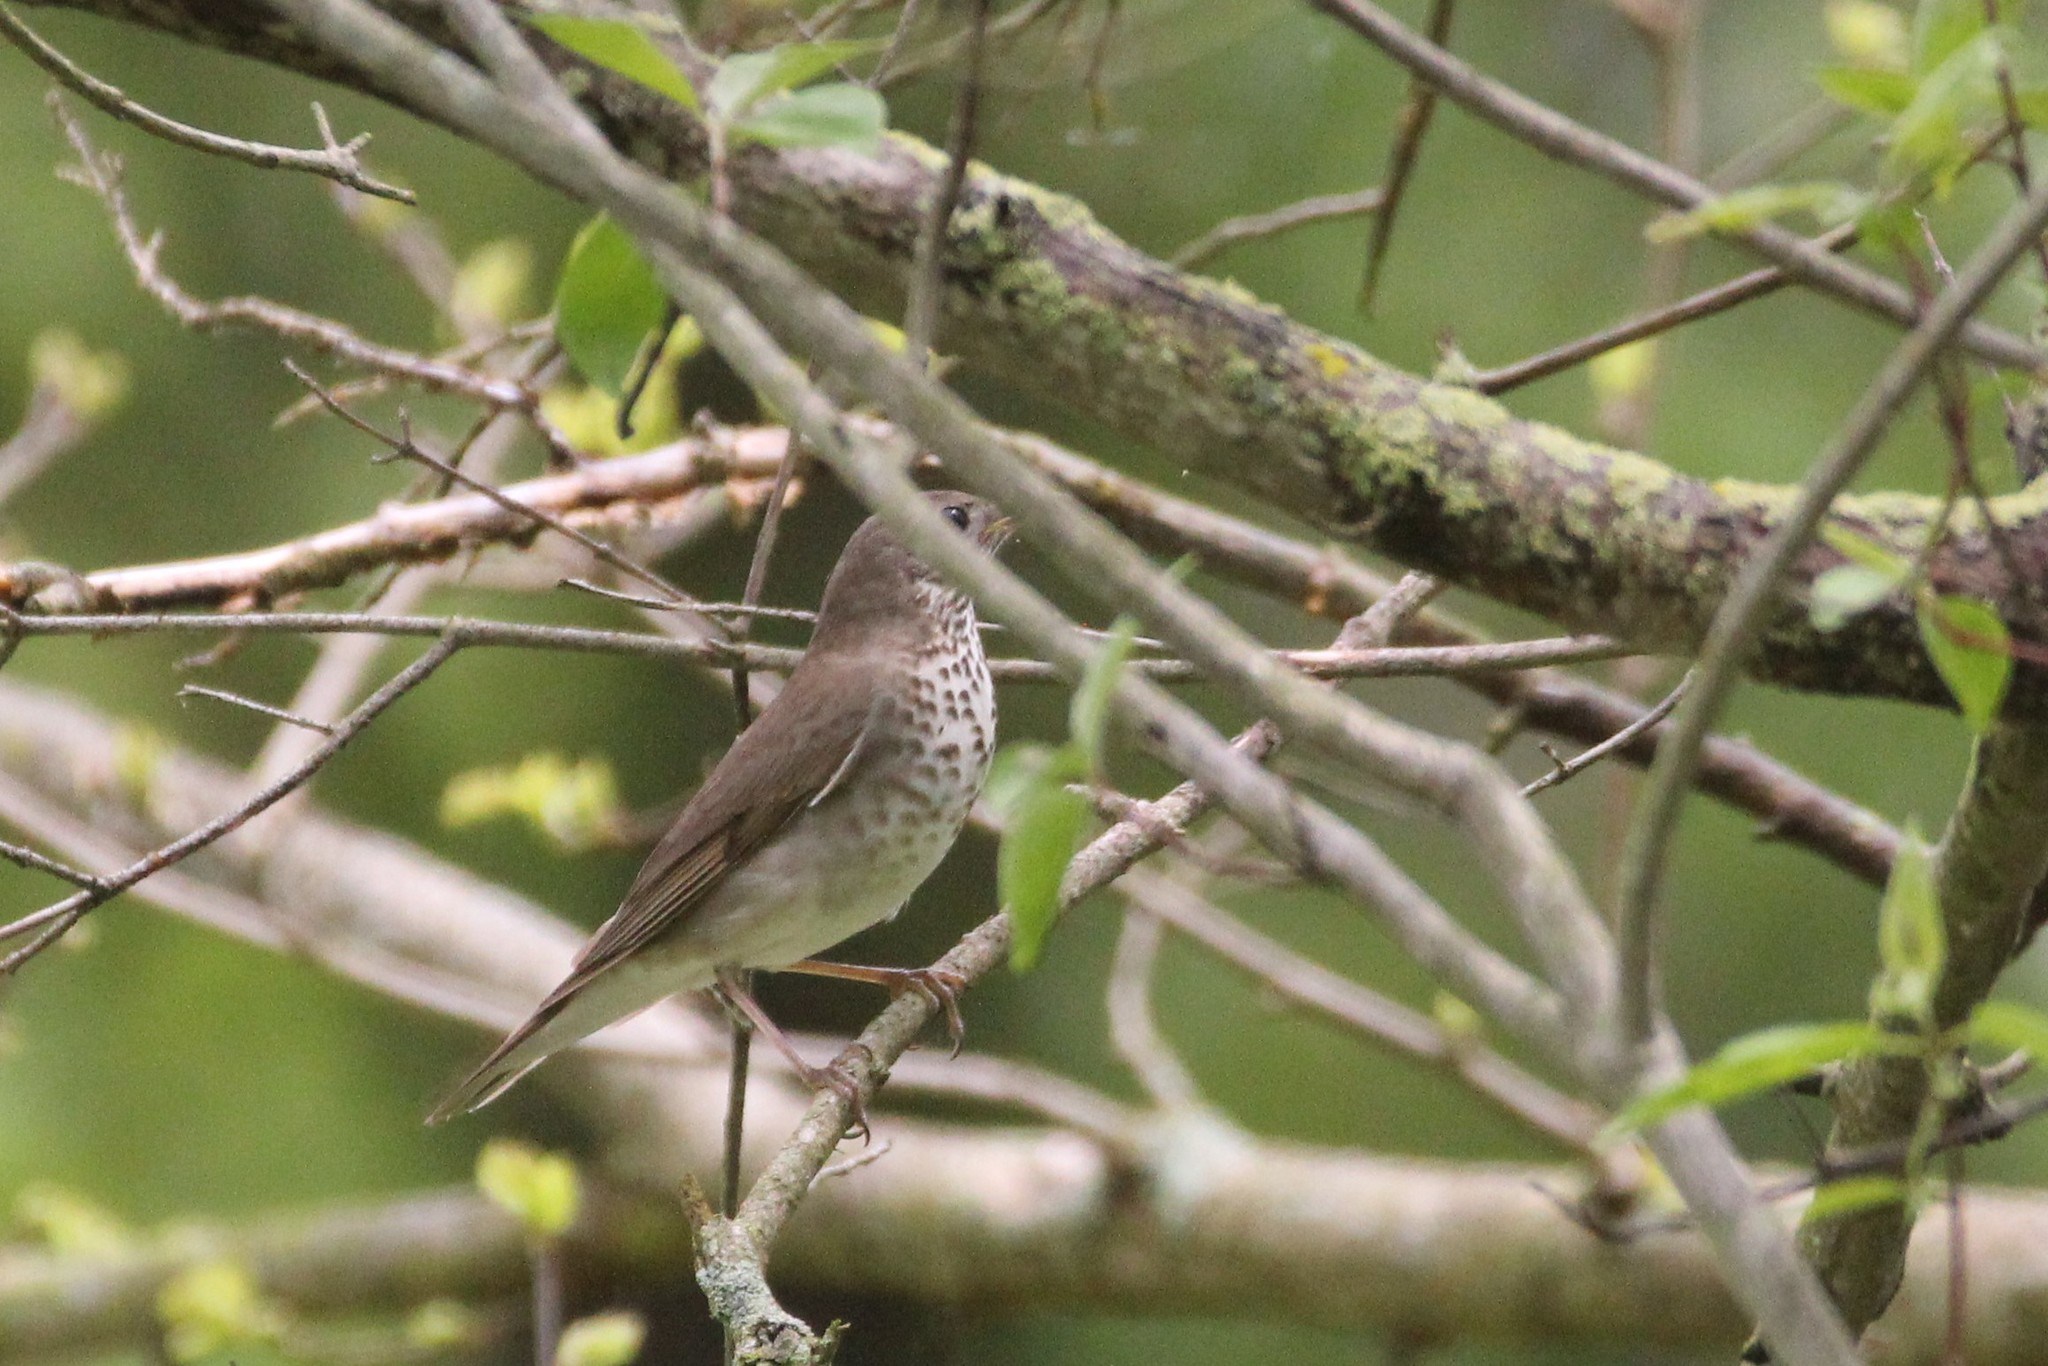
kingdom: Animalia
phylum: Chordata
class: Aves
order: Passeriformes
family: Turdidae
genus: Catharus
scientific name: Catharus minimus
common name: Grey-cheeked thrush
